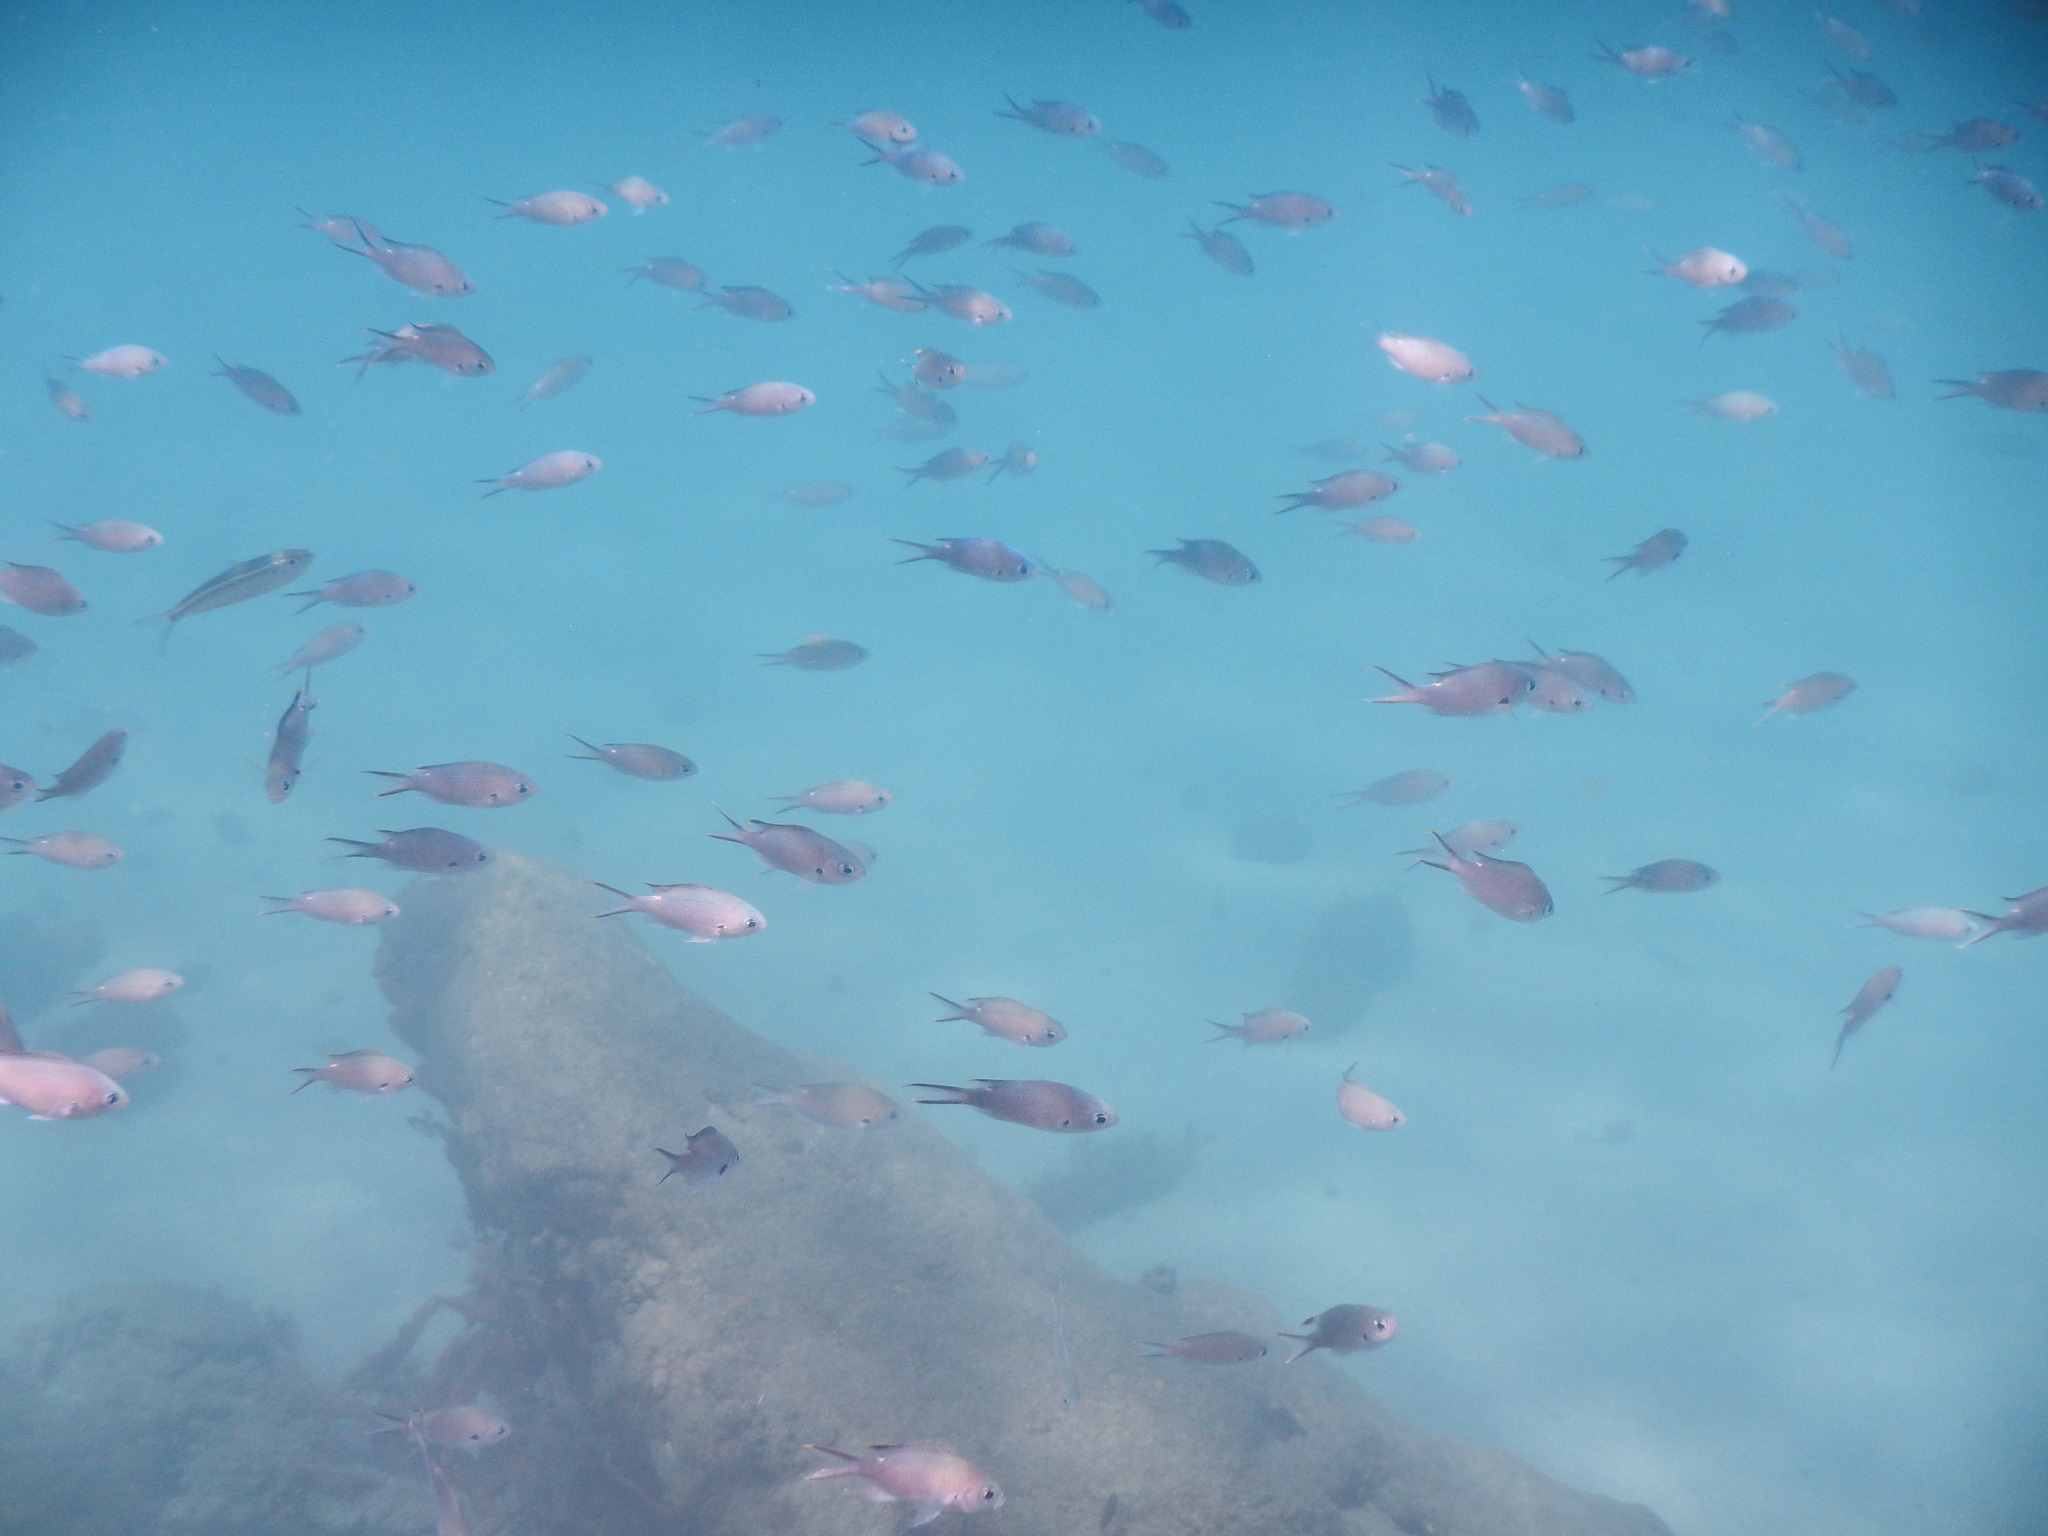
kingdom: Animalia
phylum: Chordata
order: Perciformes
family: Pomacentridae
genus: Chromis
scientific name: Chromis multilineata
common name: Brown chromis
